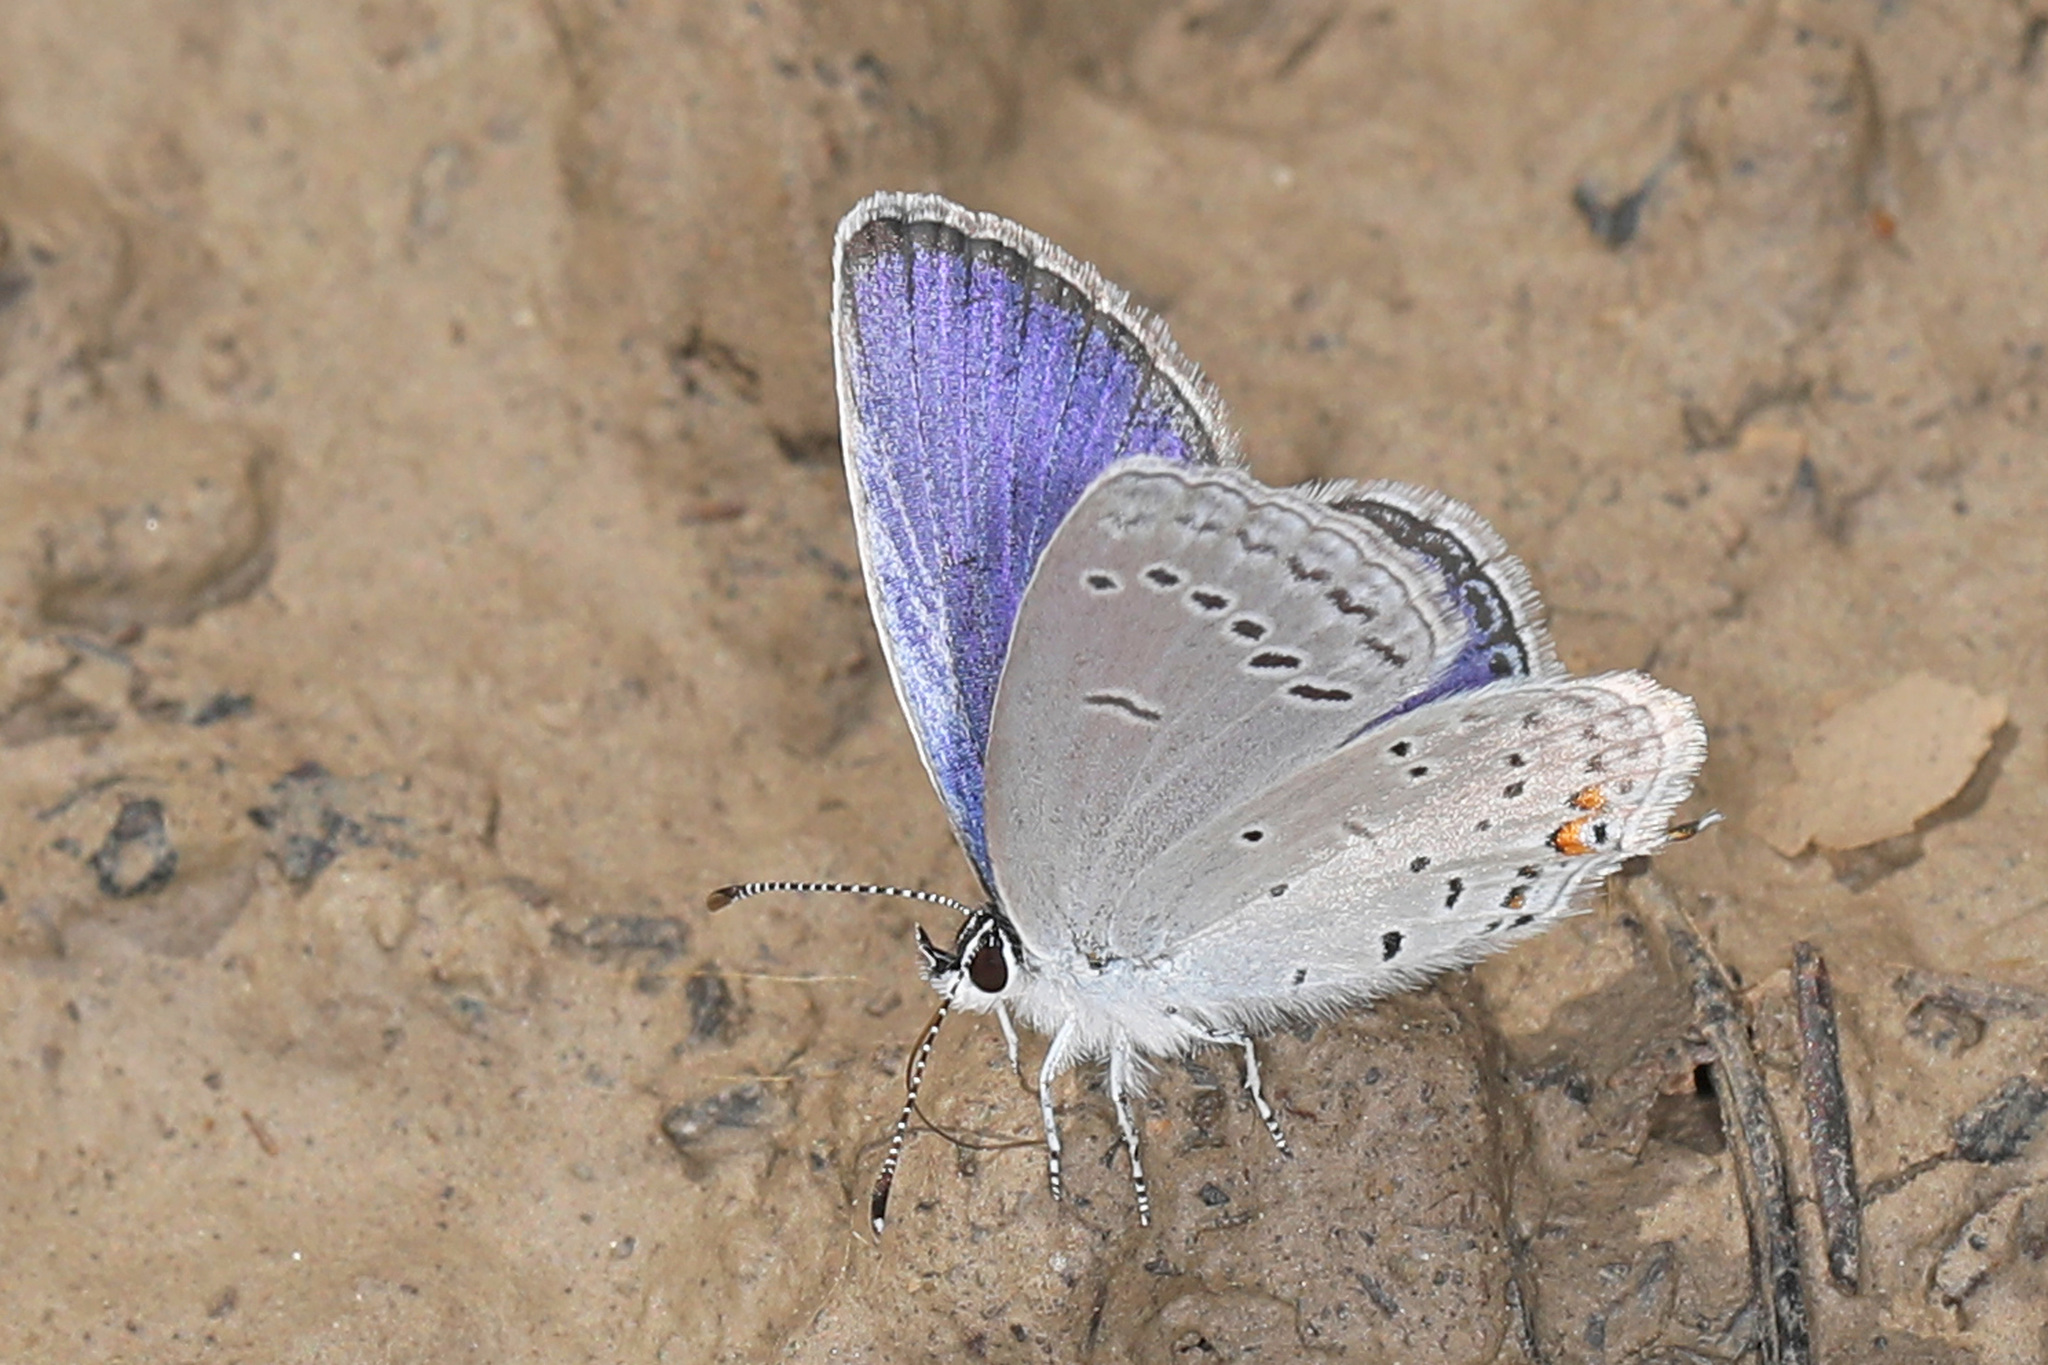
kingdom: Animalia
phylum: Arthropoda
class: Insecta
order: Lepidoptera
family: Lycaenidae
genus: Elkalyce
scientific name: Elkalyce comyntas
